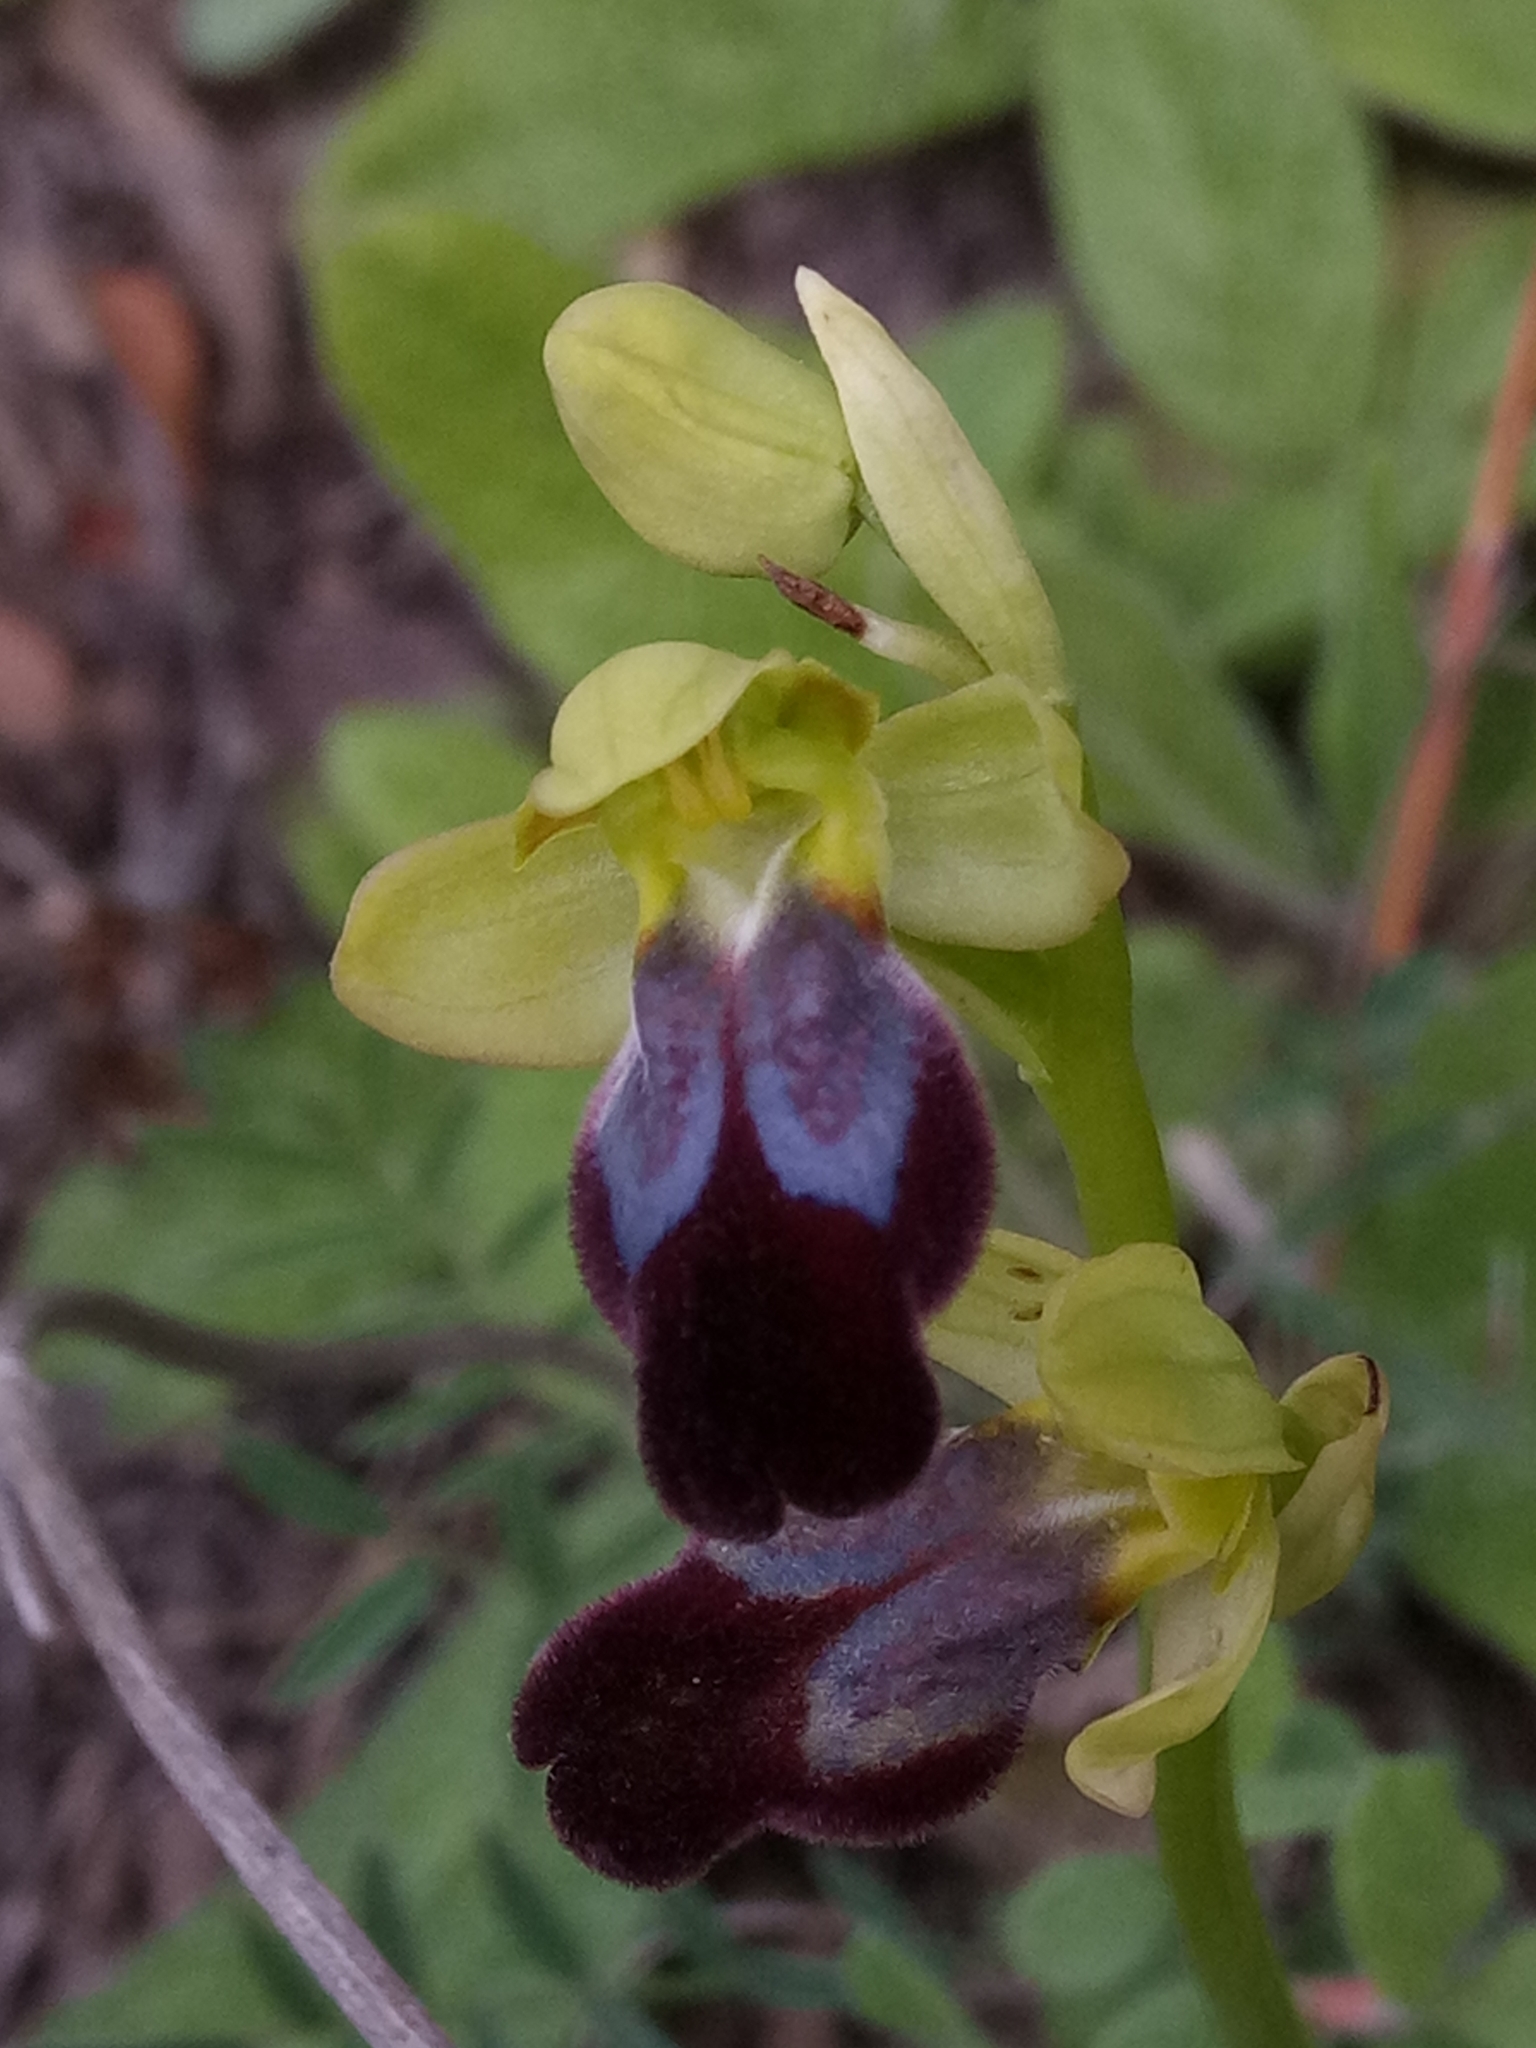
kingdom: Plantae
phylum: Tracheophyta
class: Liliopsida
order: Asparagales
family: Orchidaceae
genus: Ophrys
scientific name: Ophrys fusca
